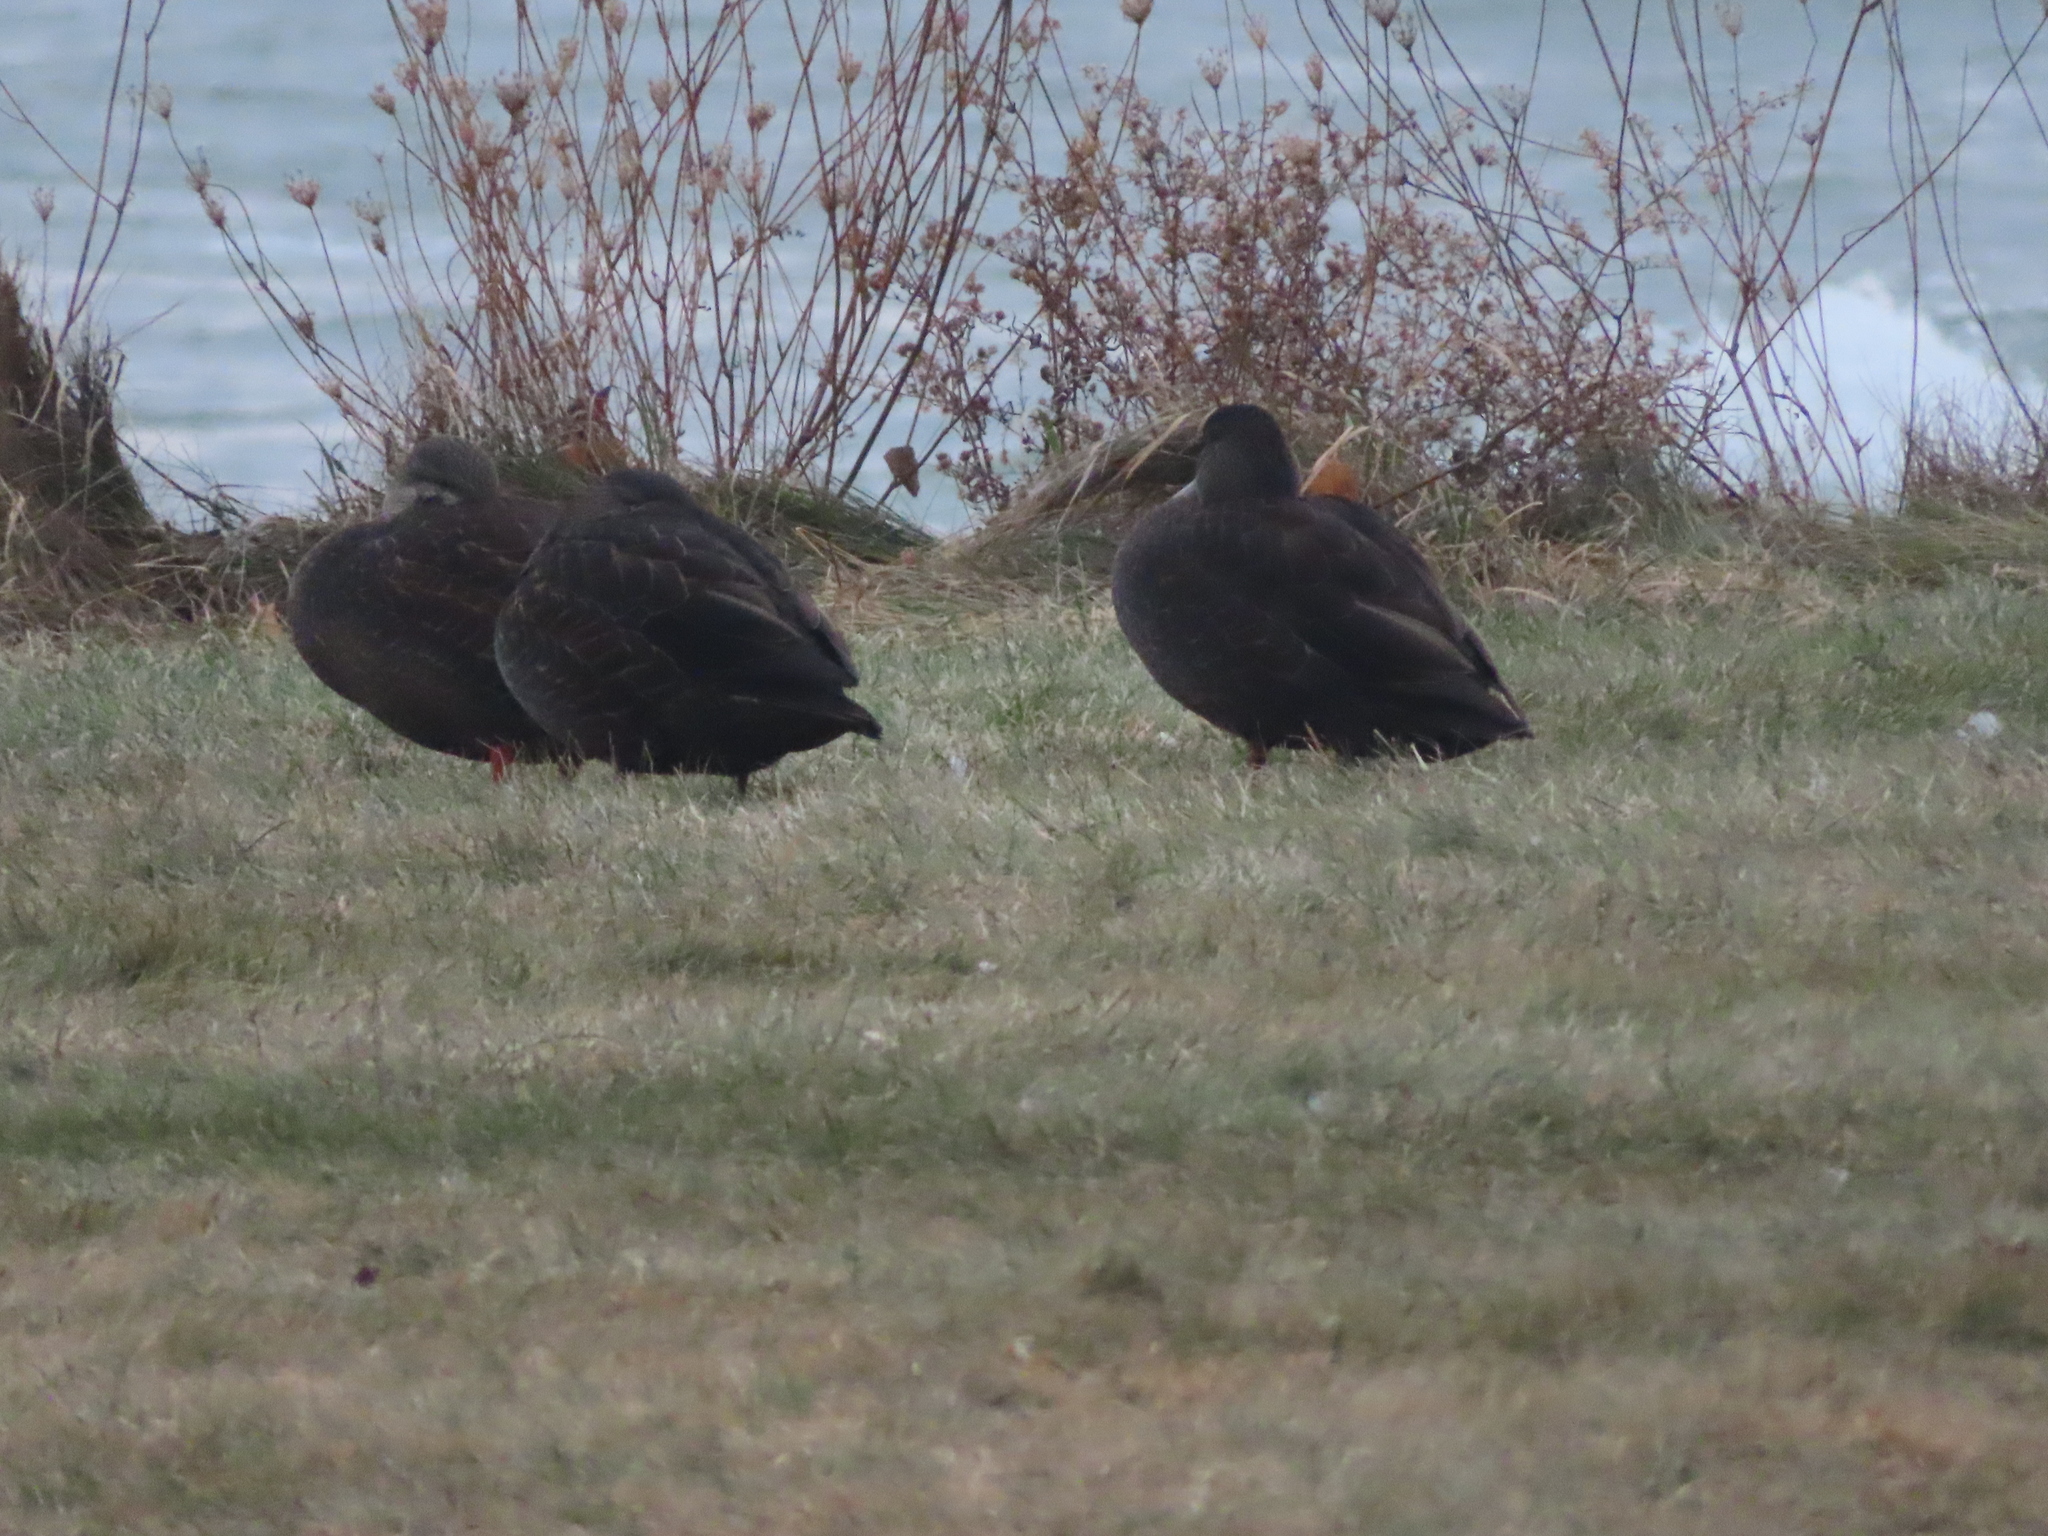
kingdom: Animalia
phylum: Chordata
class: Aves
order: Anseriformes
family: Anatidae
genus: Anas
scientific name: Anas rubripes
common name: American black duck
